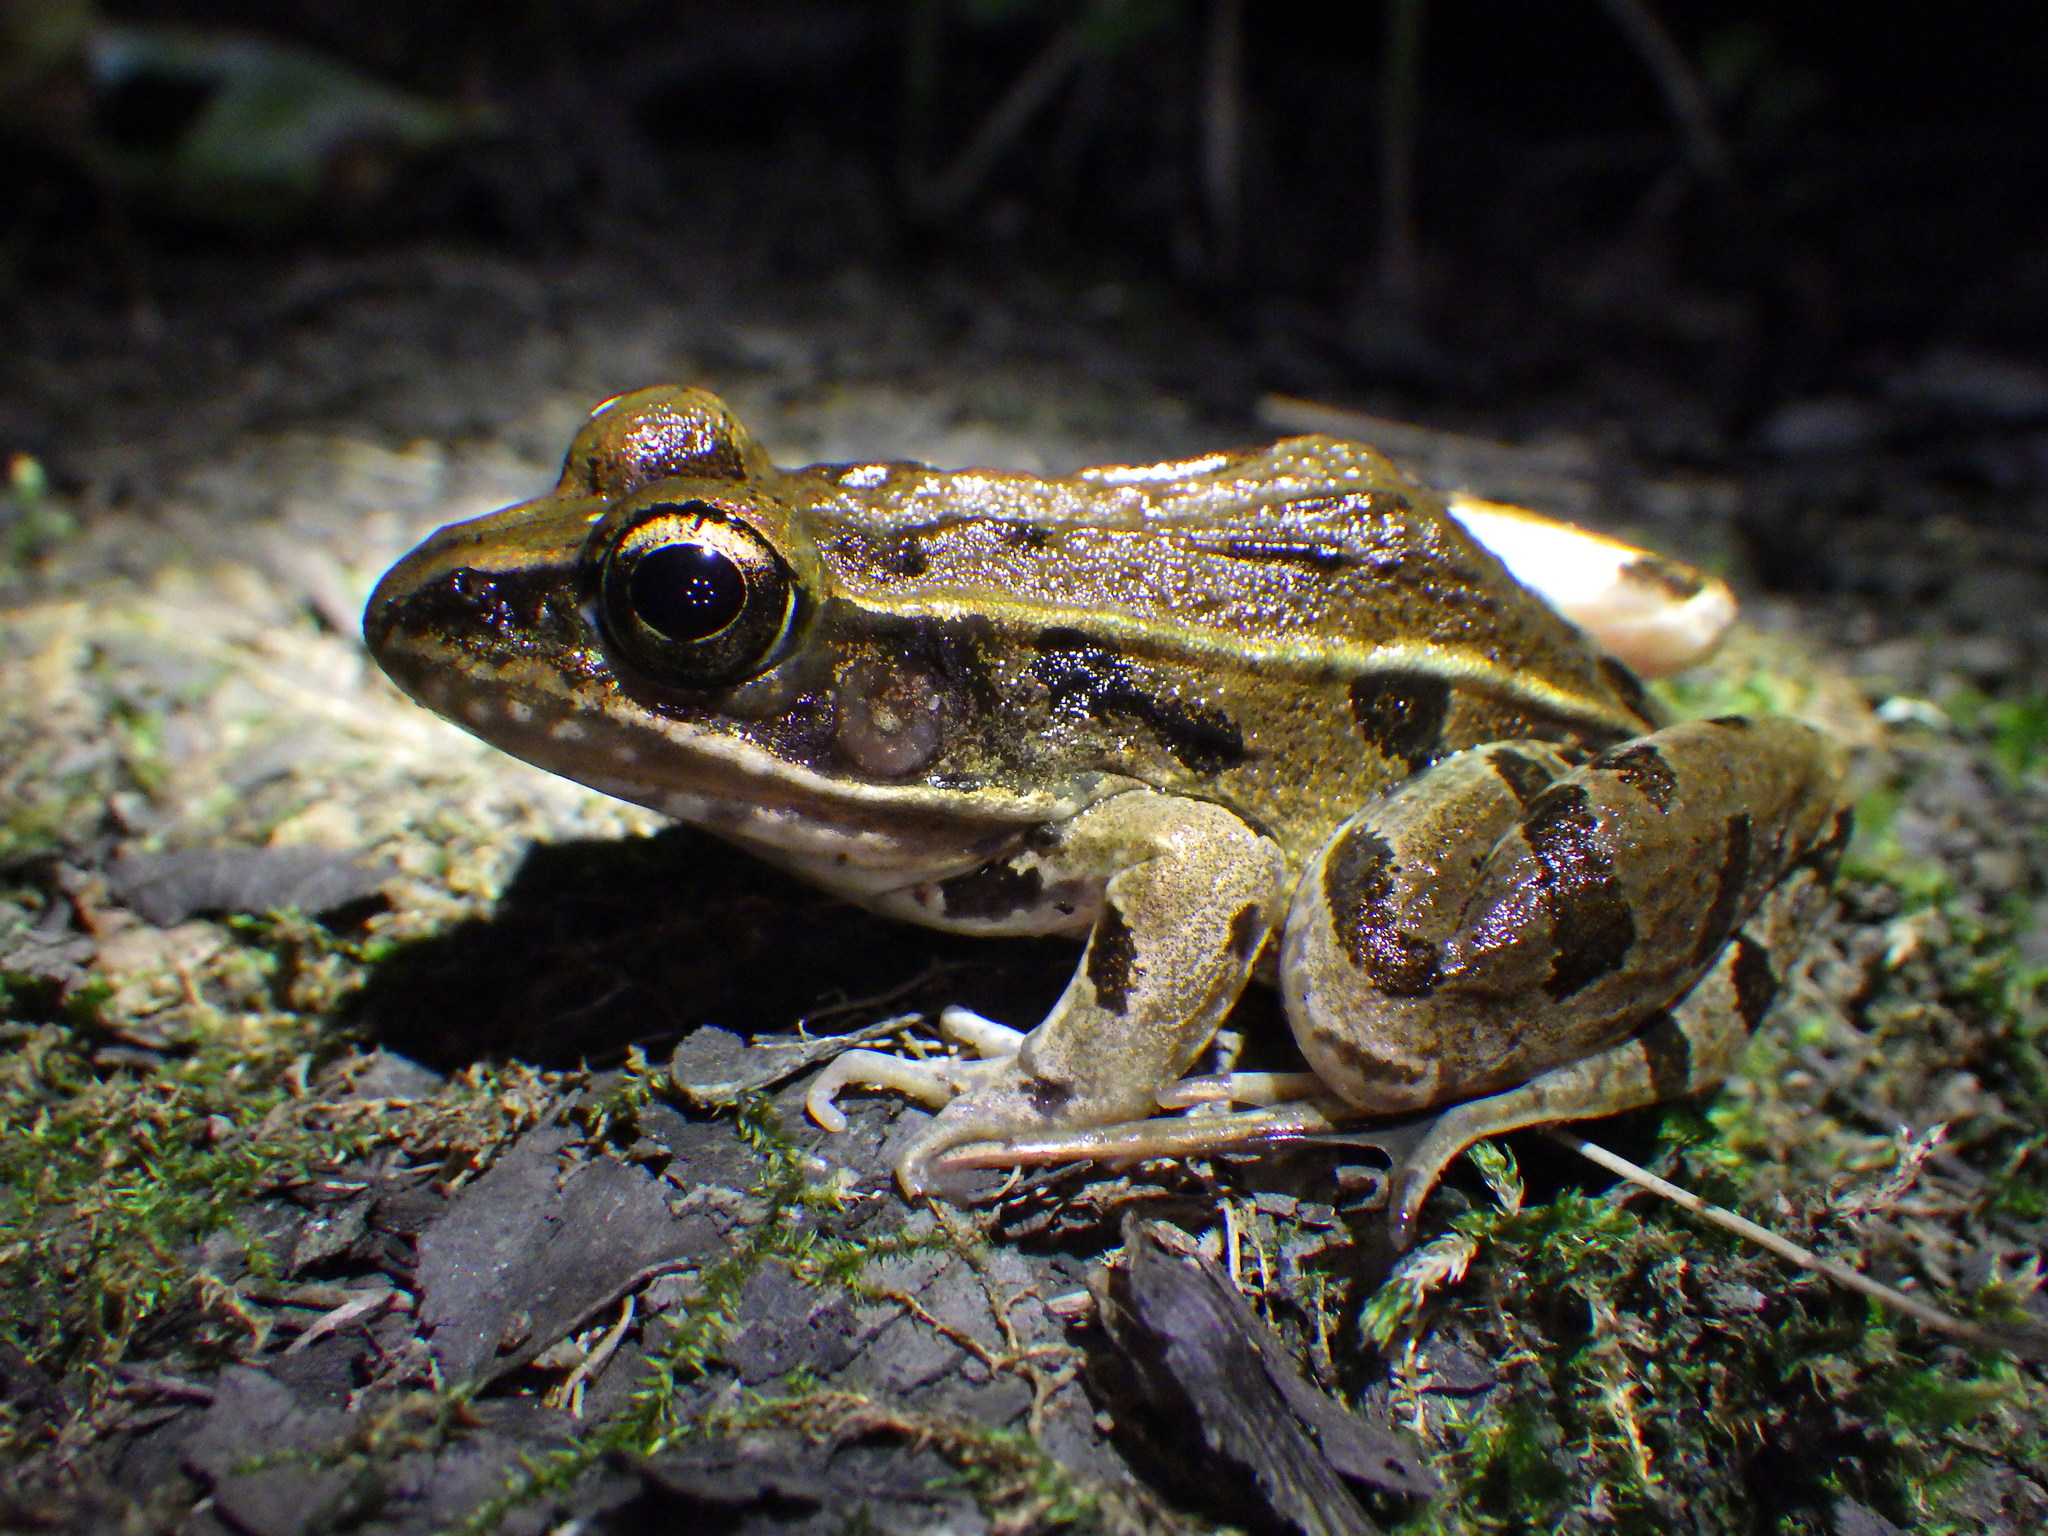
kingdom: Animalia
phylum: Chordata
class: Amphibia
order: Anura
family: Ranidae
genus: Lithobates
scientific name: Lithobates kauffeldi
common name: Mid-atlantic coast leopard frog
